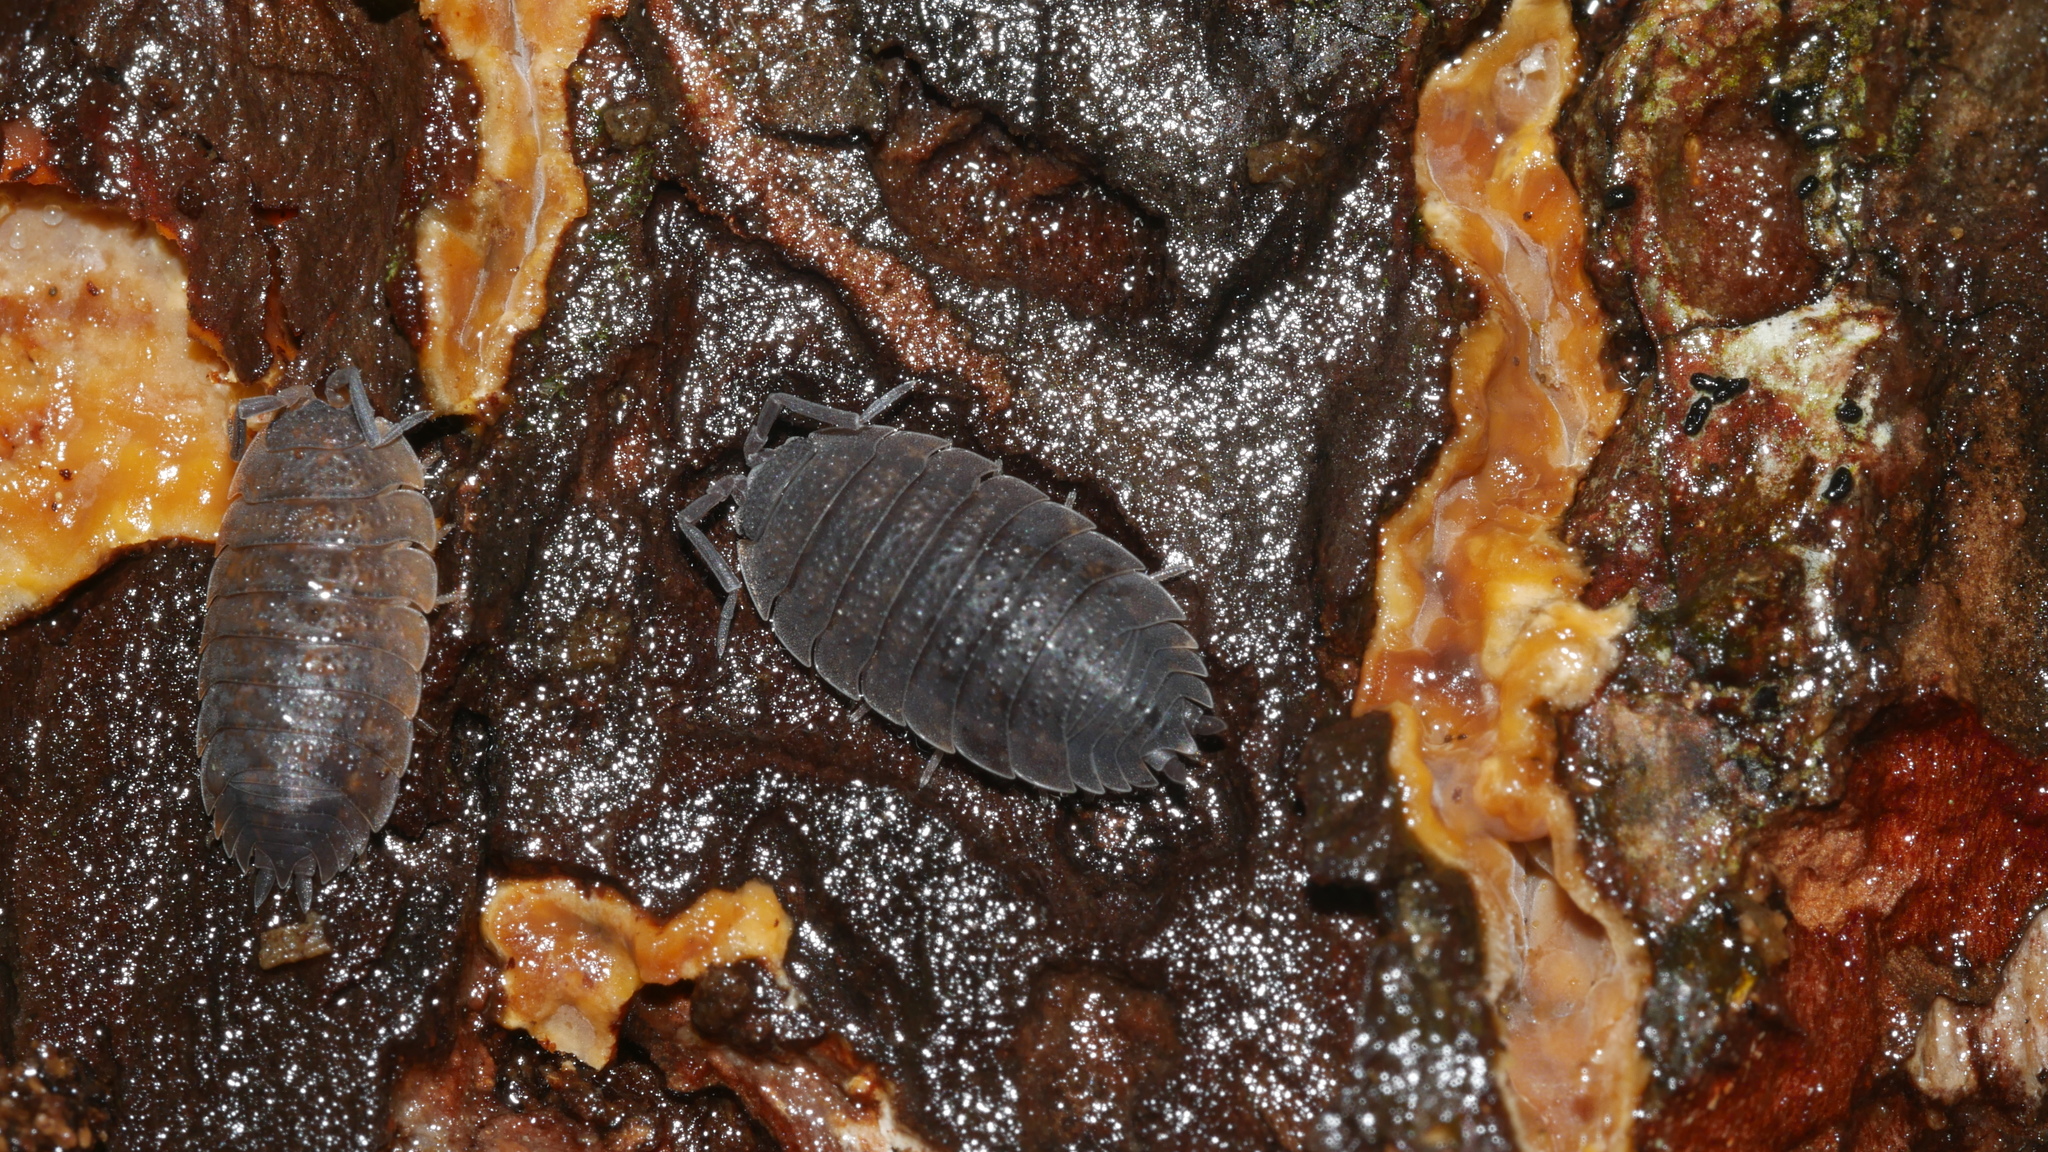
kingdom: Animalia
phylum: Arthropoda
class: Malacostraca
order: Isopoda
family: Porcellionidae
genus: Porcellio
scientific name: Porcellio scaber
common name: Common rough woodlouse
